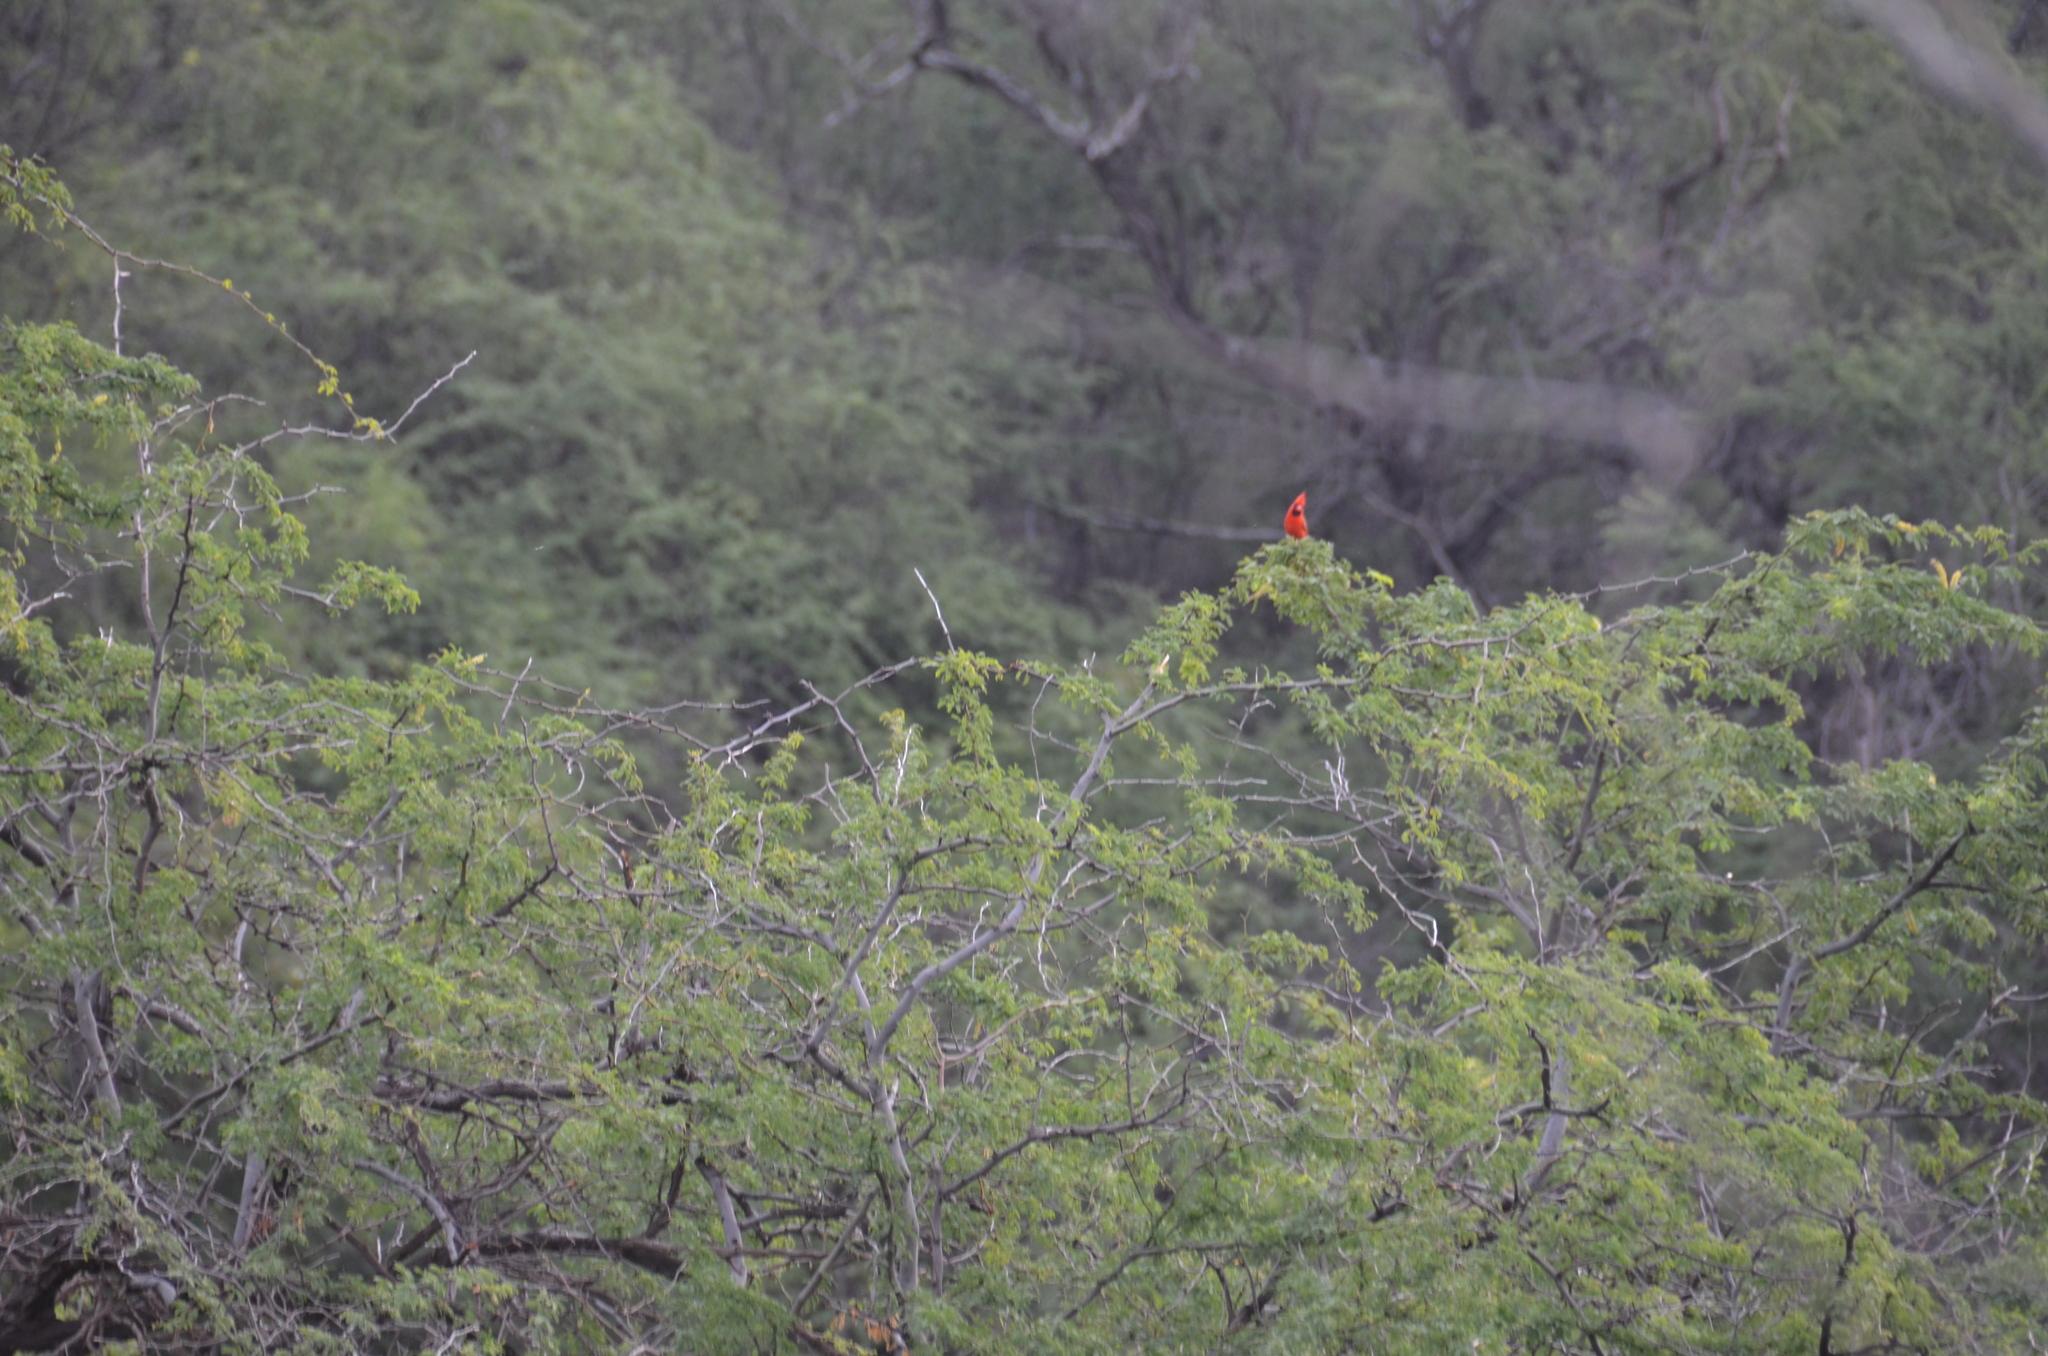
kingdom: Animalia
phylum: Chordata
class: Aves
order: Passeriformes
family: Cardinalidae
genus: Cardinalis
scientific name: Cardinalis cardinalis
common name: Northern cardinal
